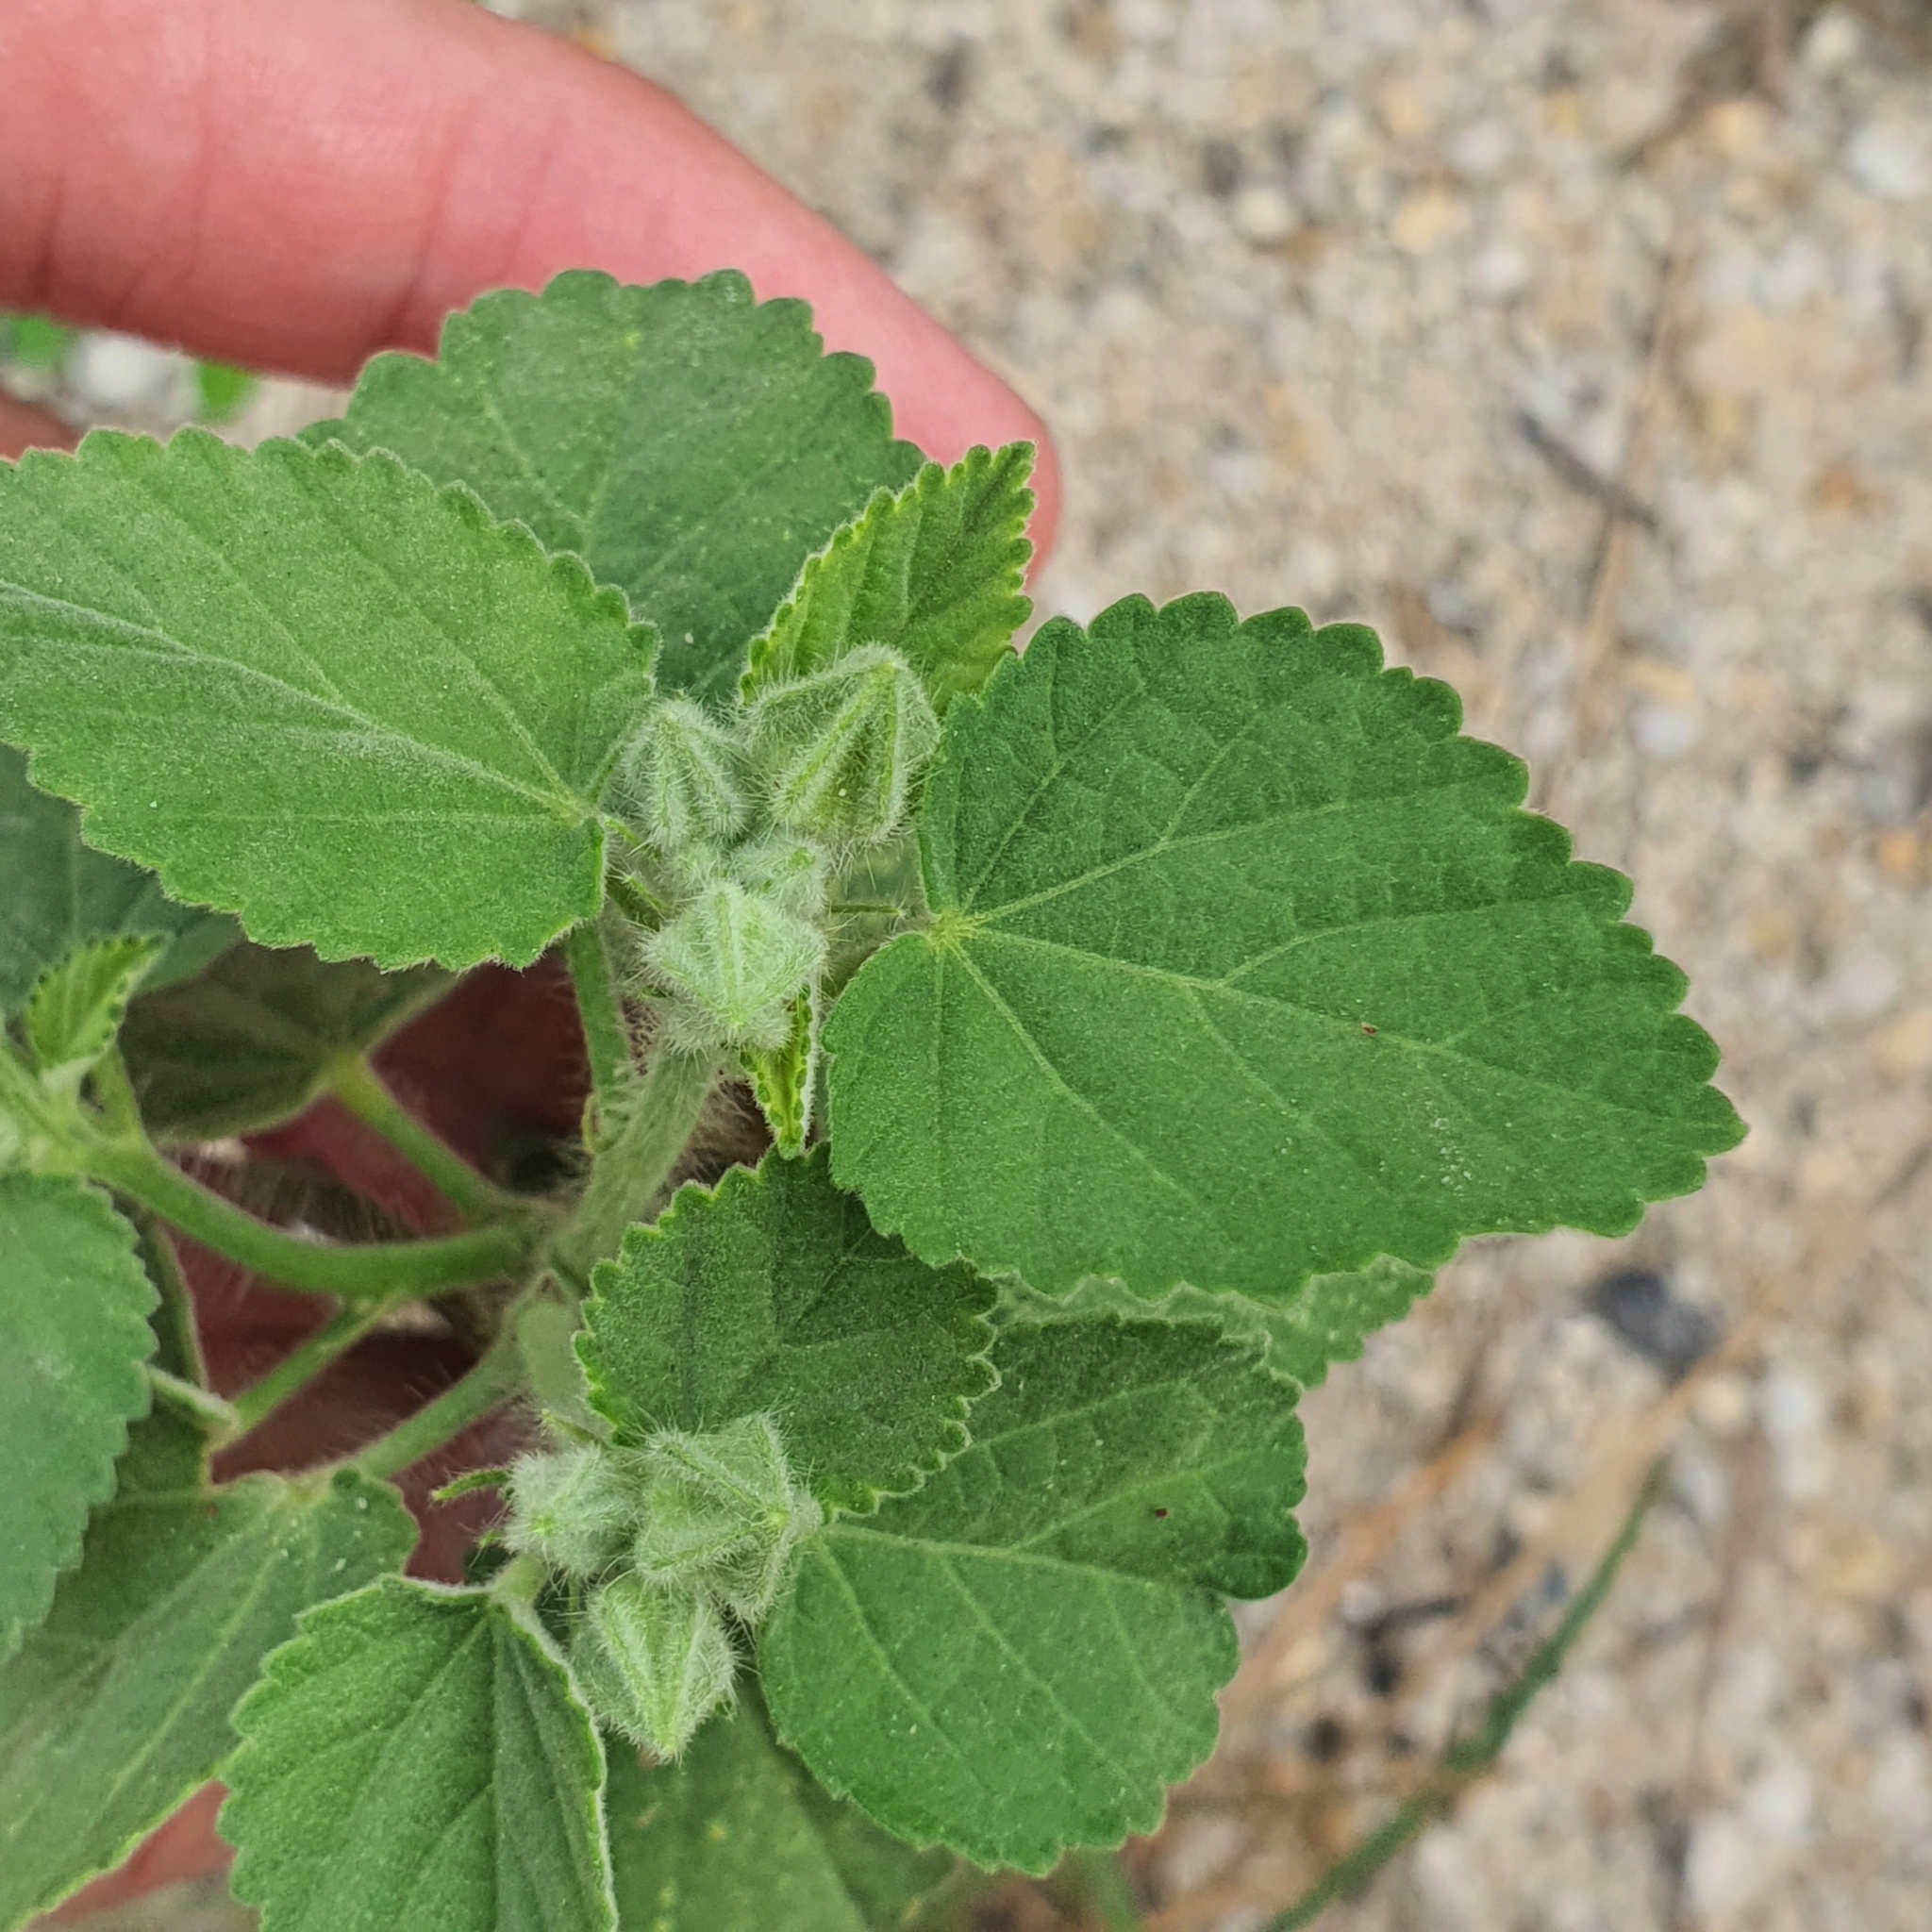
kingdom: Plantae
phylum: Tracheophyta
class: Magnoliopsida
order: Malvales
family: Malvaceae
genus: Sida
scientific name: Sida cordifolia
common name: Ilima
